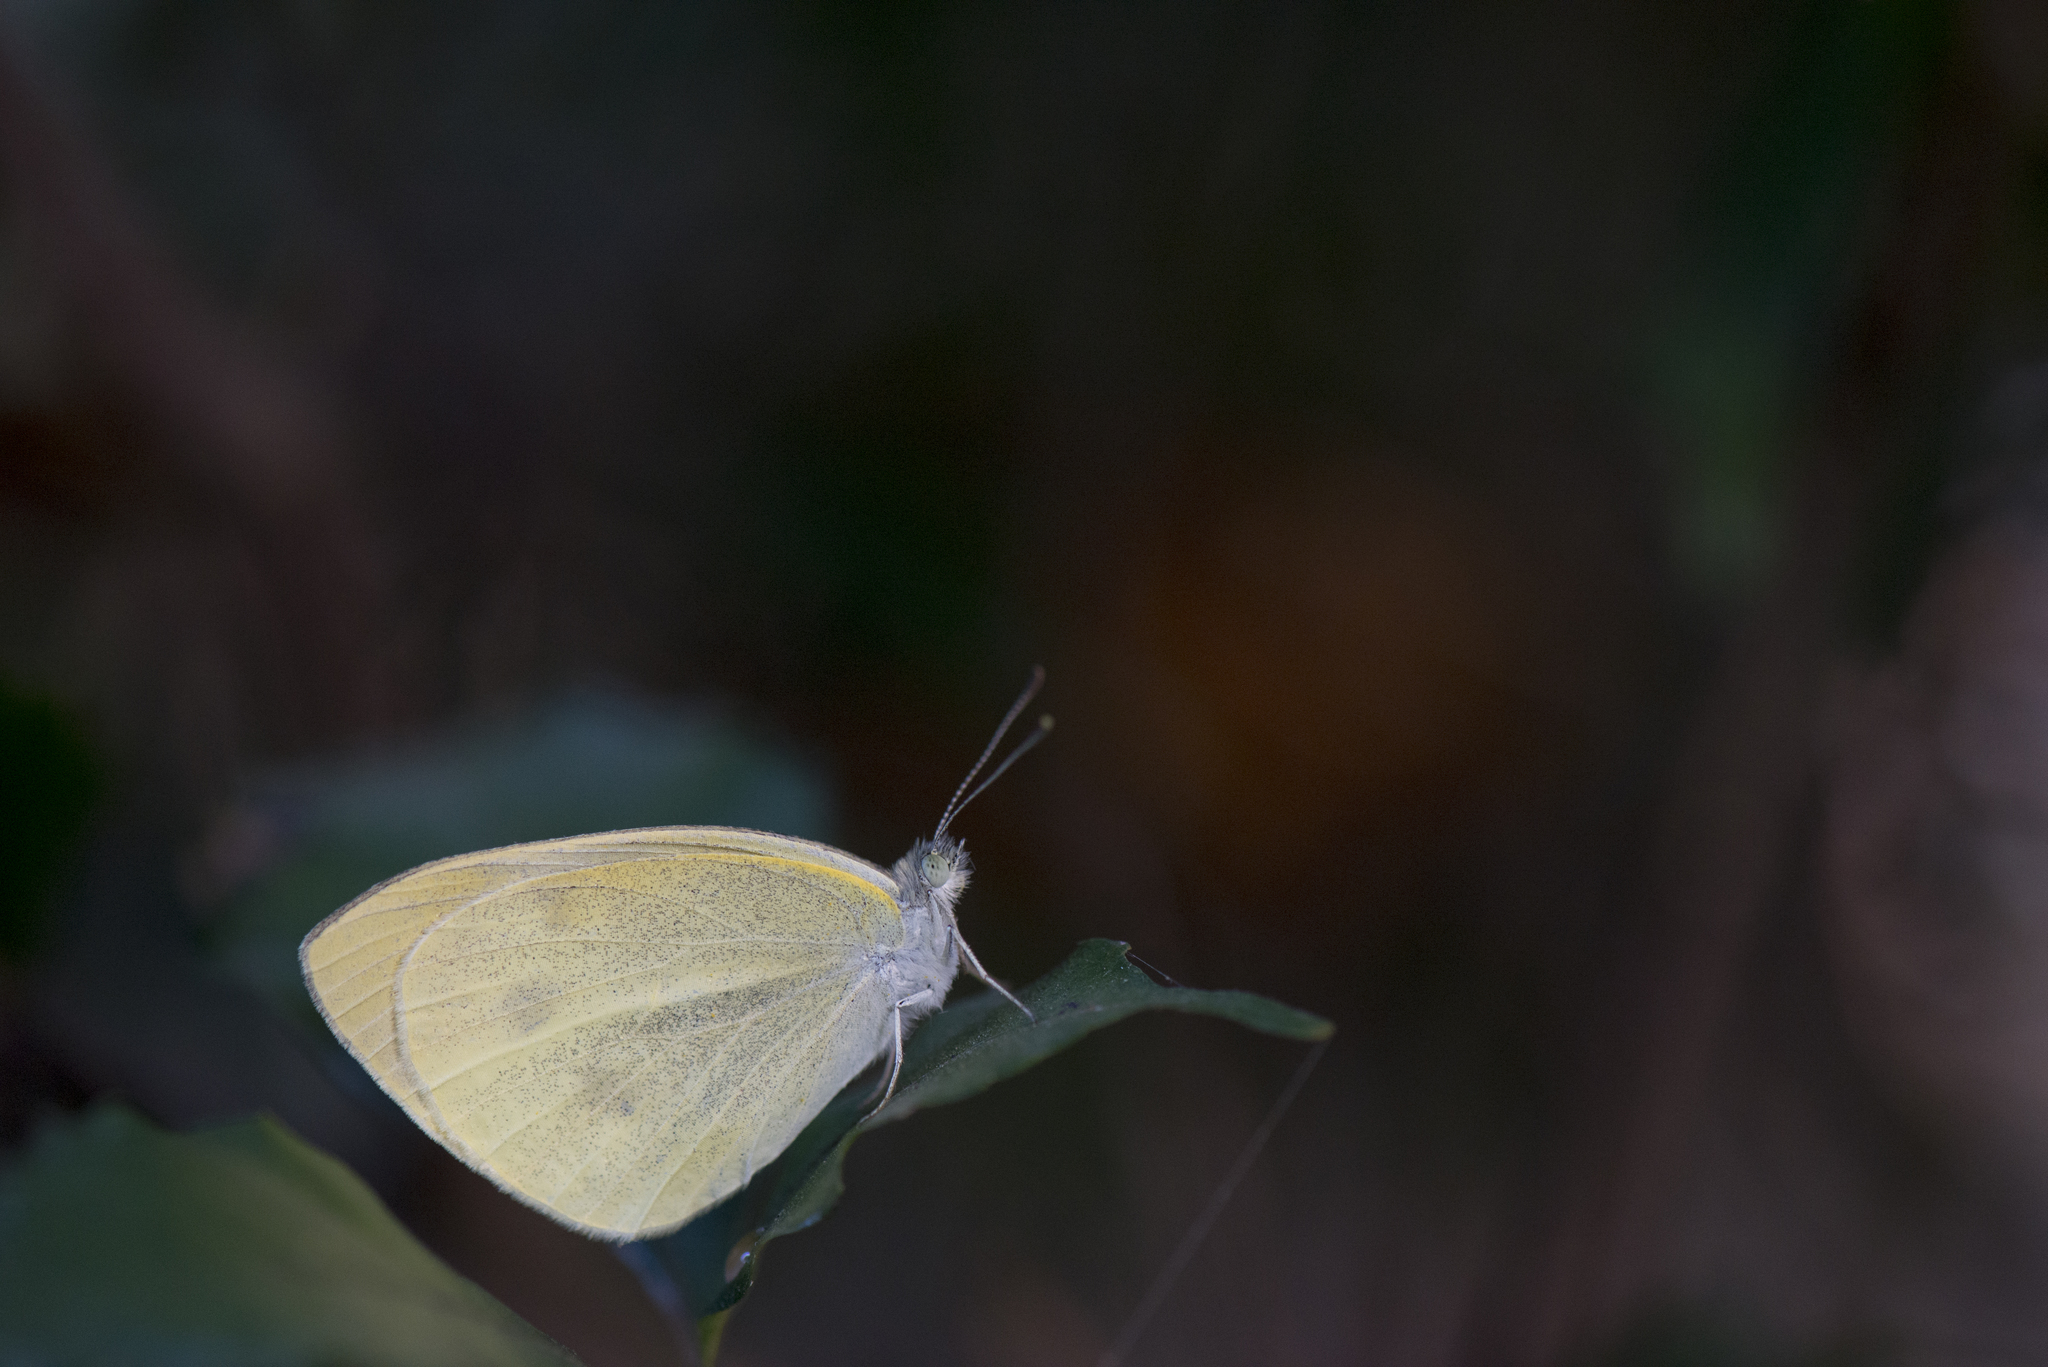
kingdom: Animalia
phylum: Arthropoda
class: Insecta
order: Lepidoptera
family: Pieridae
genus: Pieris
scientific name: Pieris rapae
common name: Small white
